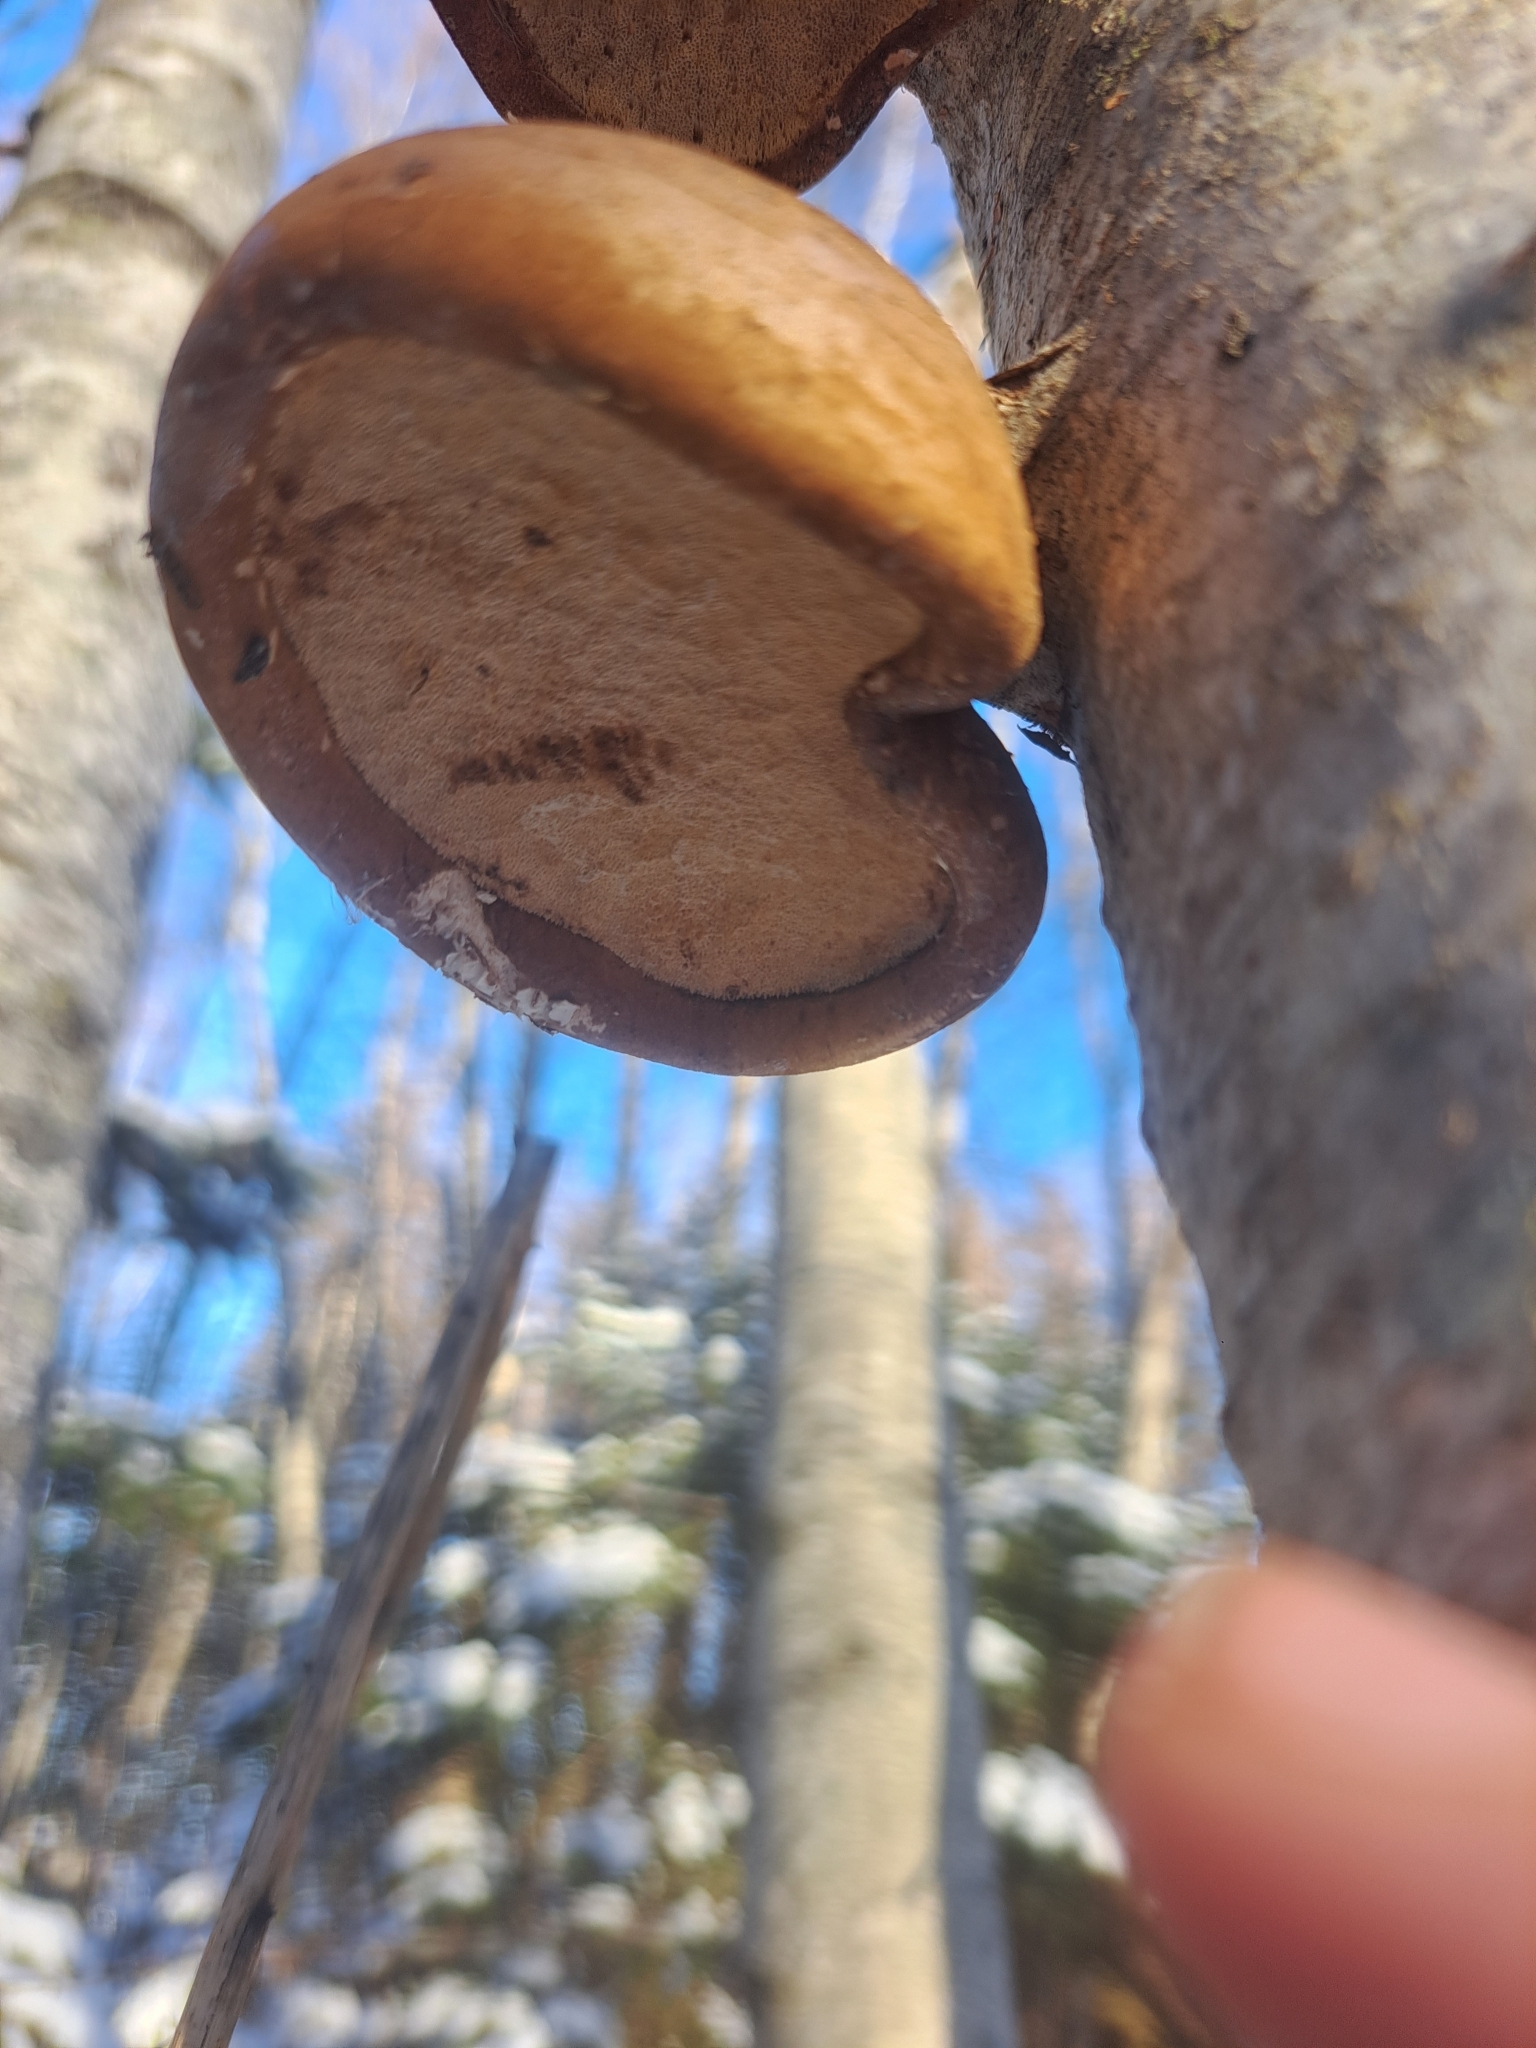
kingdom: Fungi
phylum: Basidiomycota
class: Agaricomycetes
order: Polyporales
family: Fomitopsidaceae
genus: Fomitopsis
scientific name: Fomitopsis betulina
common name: Birch polypore
